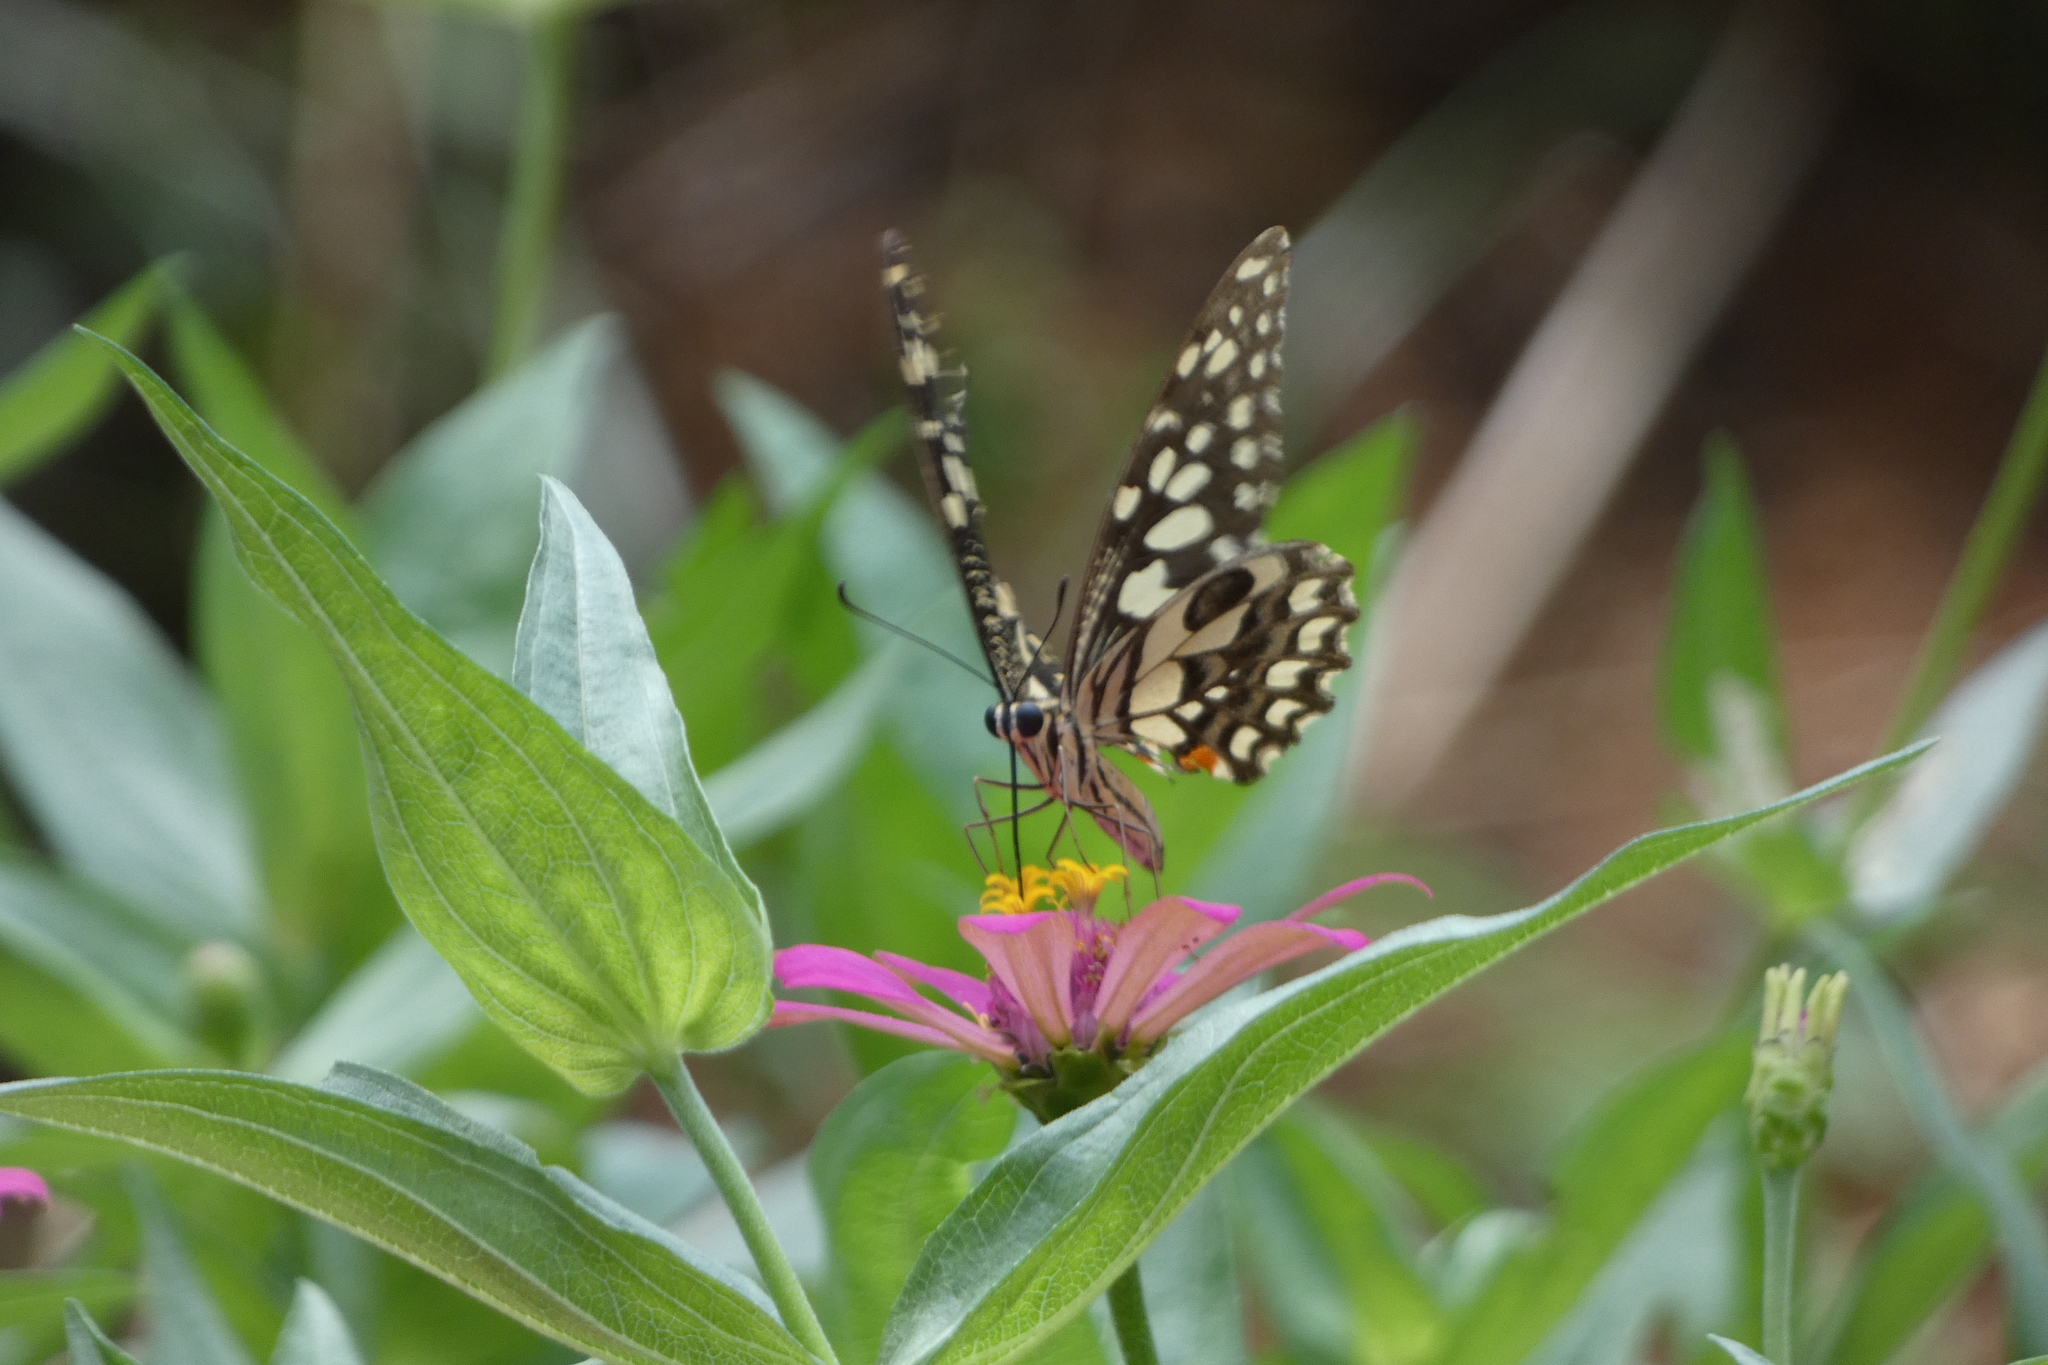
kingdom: Animalia
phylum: Arthropoda
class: Insecta
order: Lepidoptera
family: Papilionidae
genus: Papilio
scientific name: Papilio demoleus
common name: Lime butterfly
